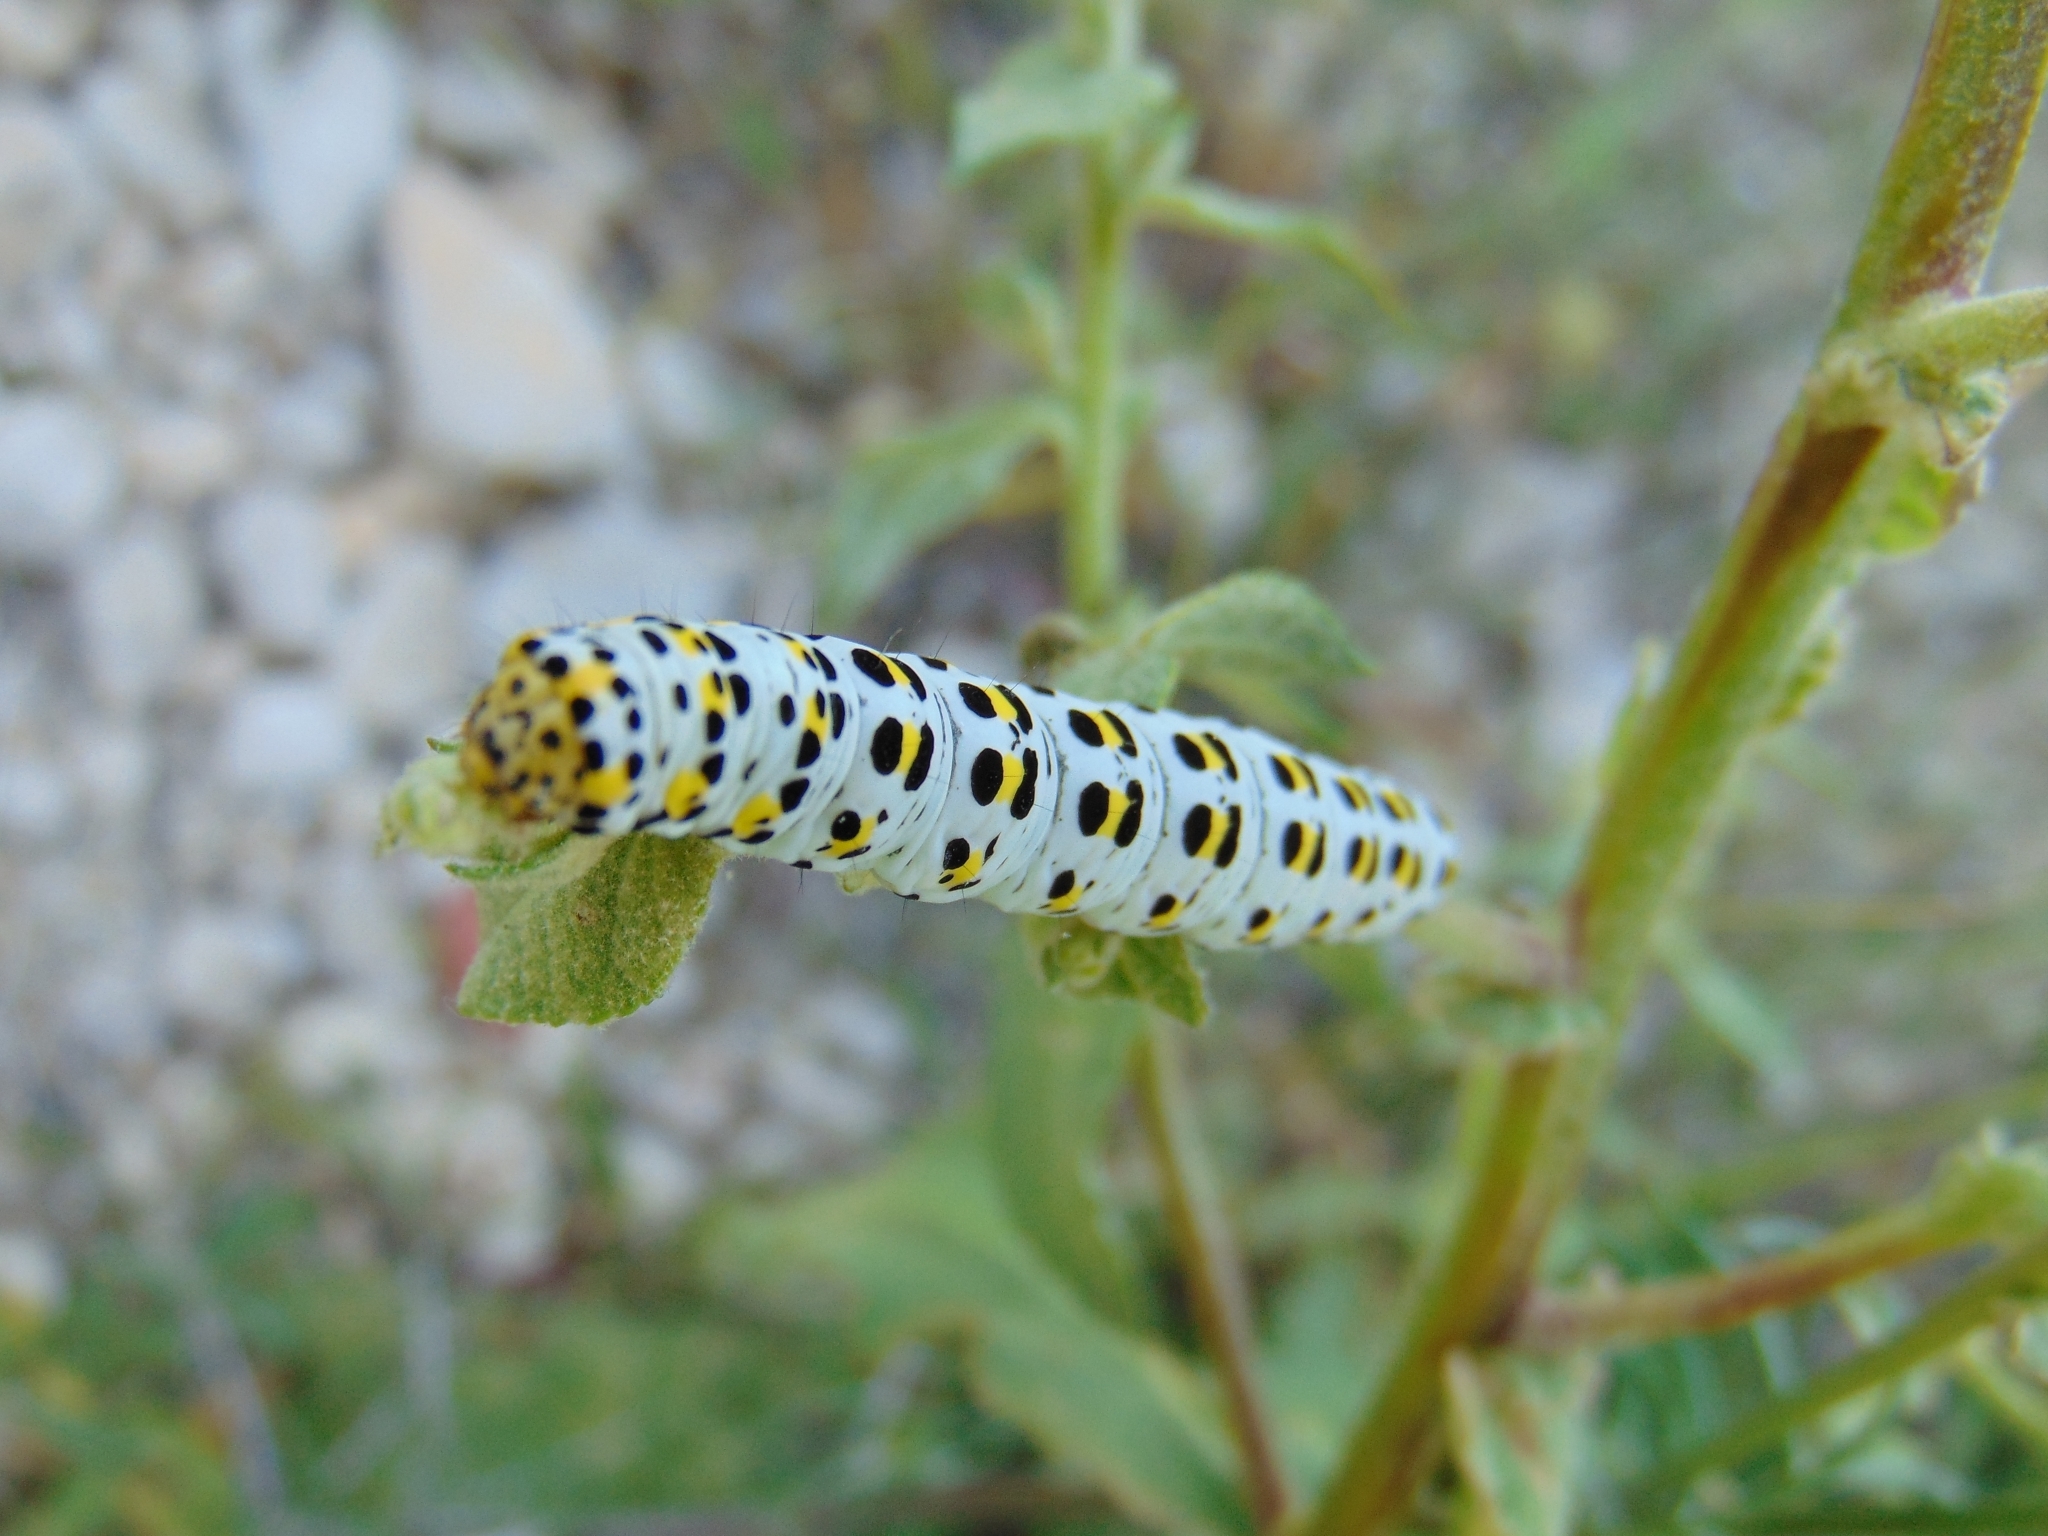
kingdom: Animalia
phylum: Arthropoda
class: Insecta
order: Lepidoptera
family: Noctuidae
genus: Cucullia
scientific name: Cucullia verbasci
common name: Mullein
